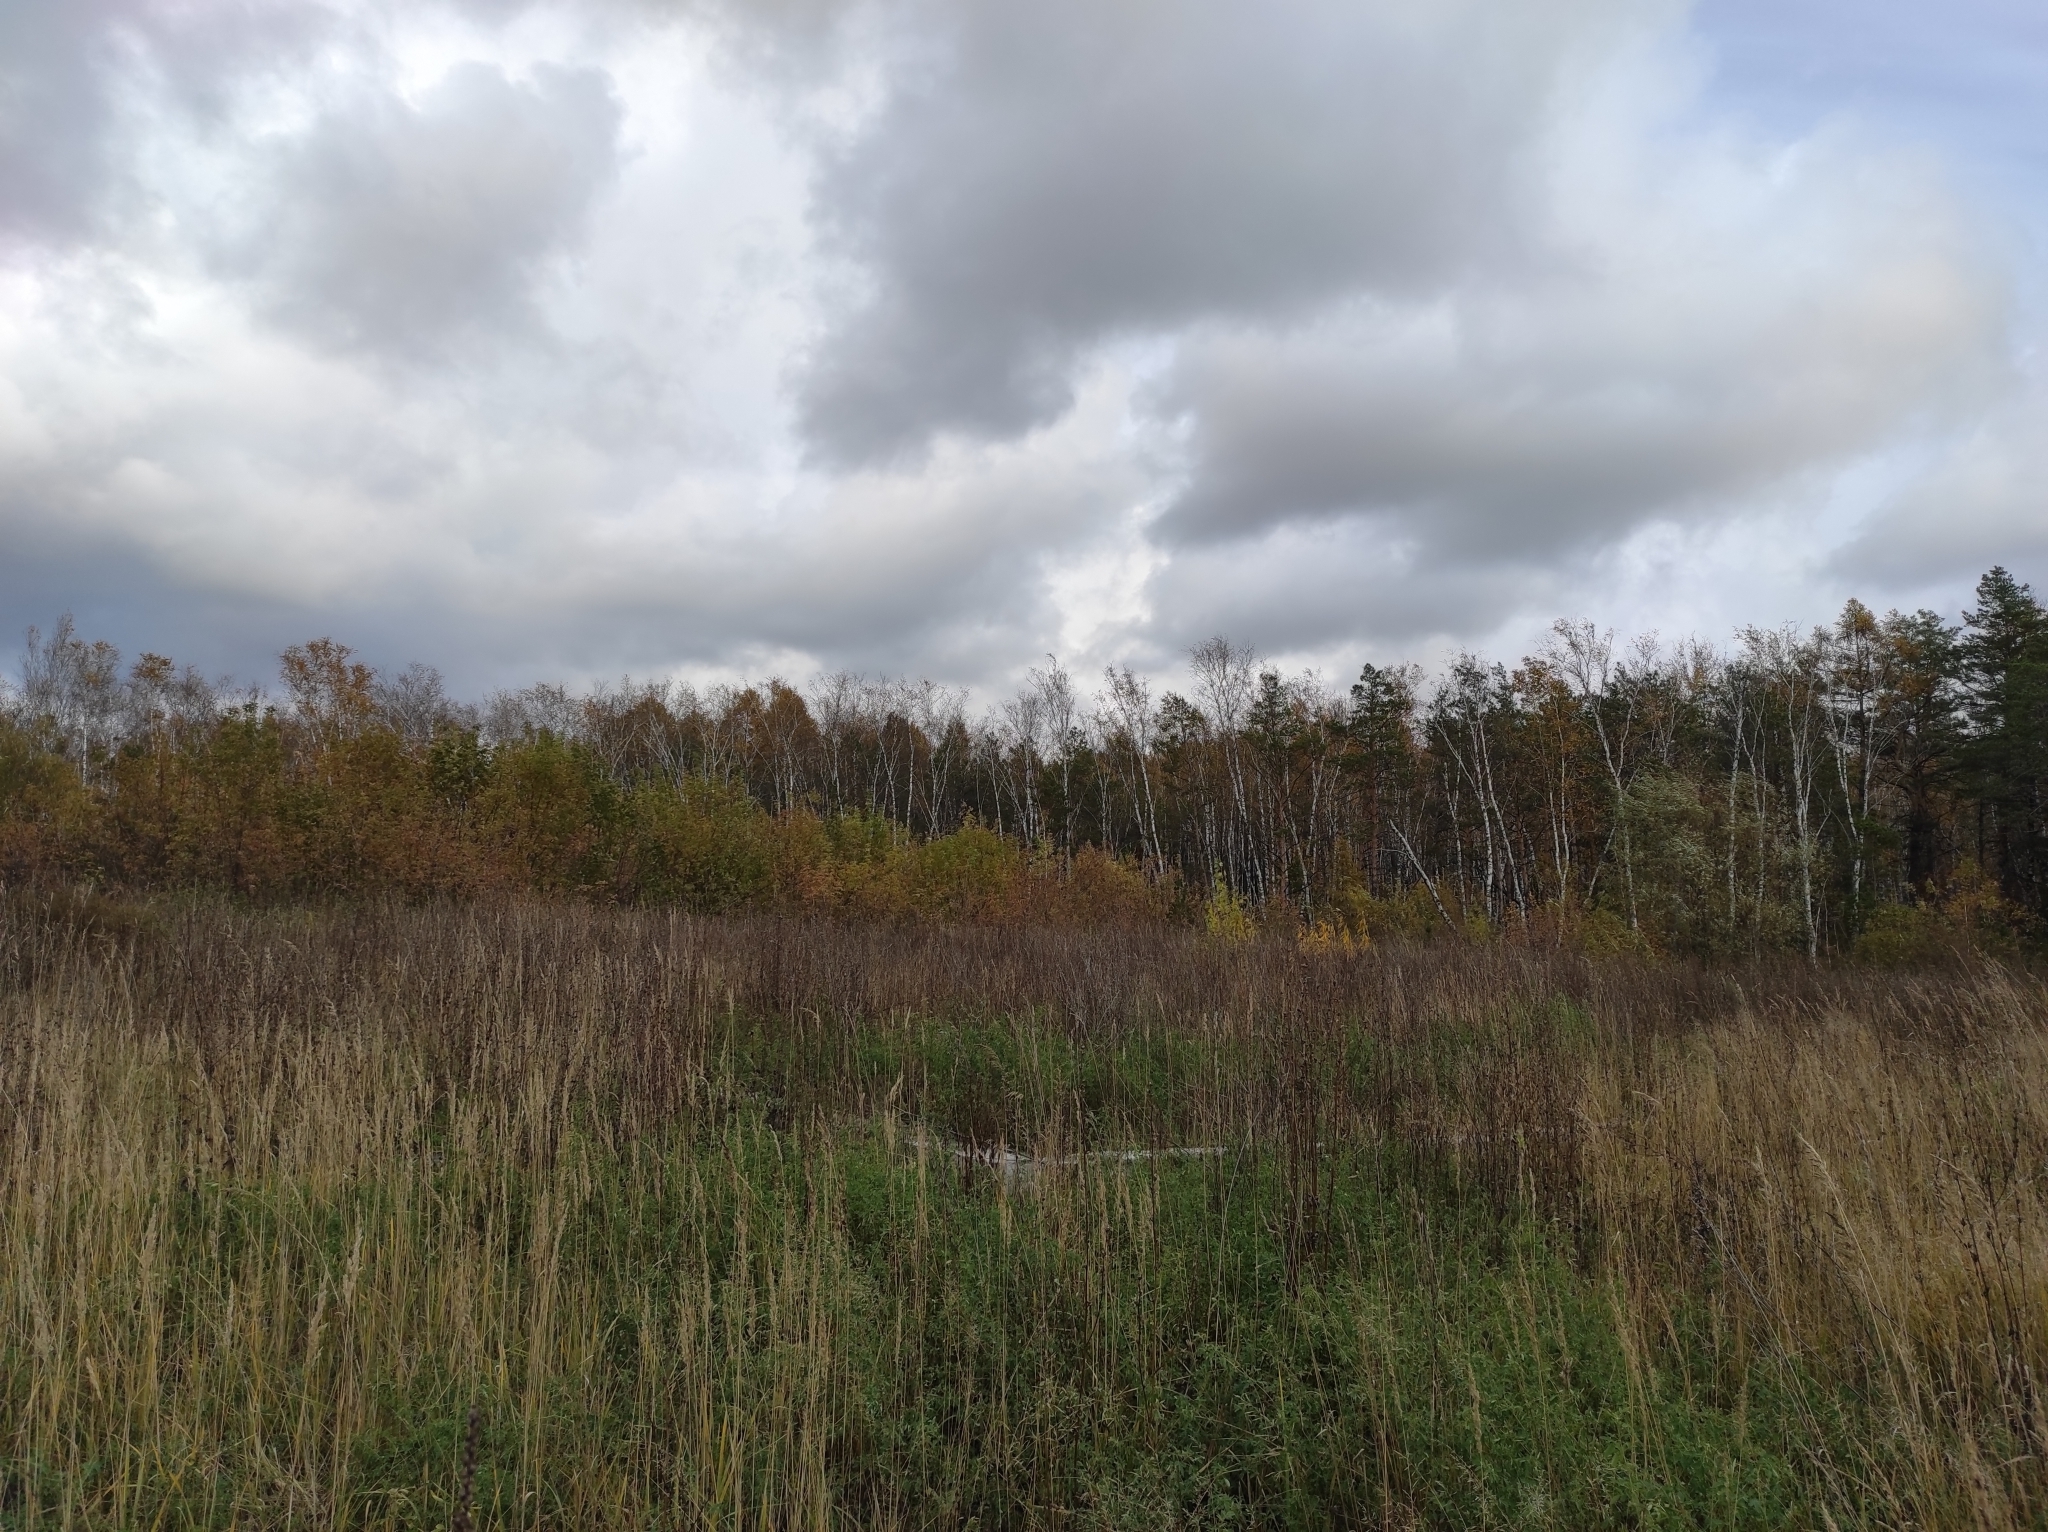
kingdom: Plantae
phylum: Tracheophyta
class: Pinopsida
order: Pinales
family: Pinaceae
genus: Pinus
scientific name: Pinus sylvestris
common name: Scots pine
